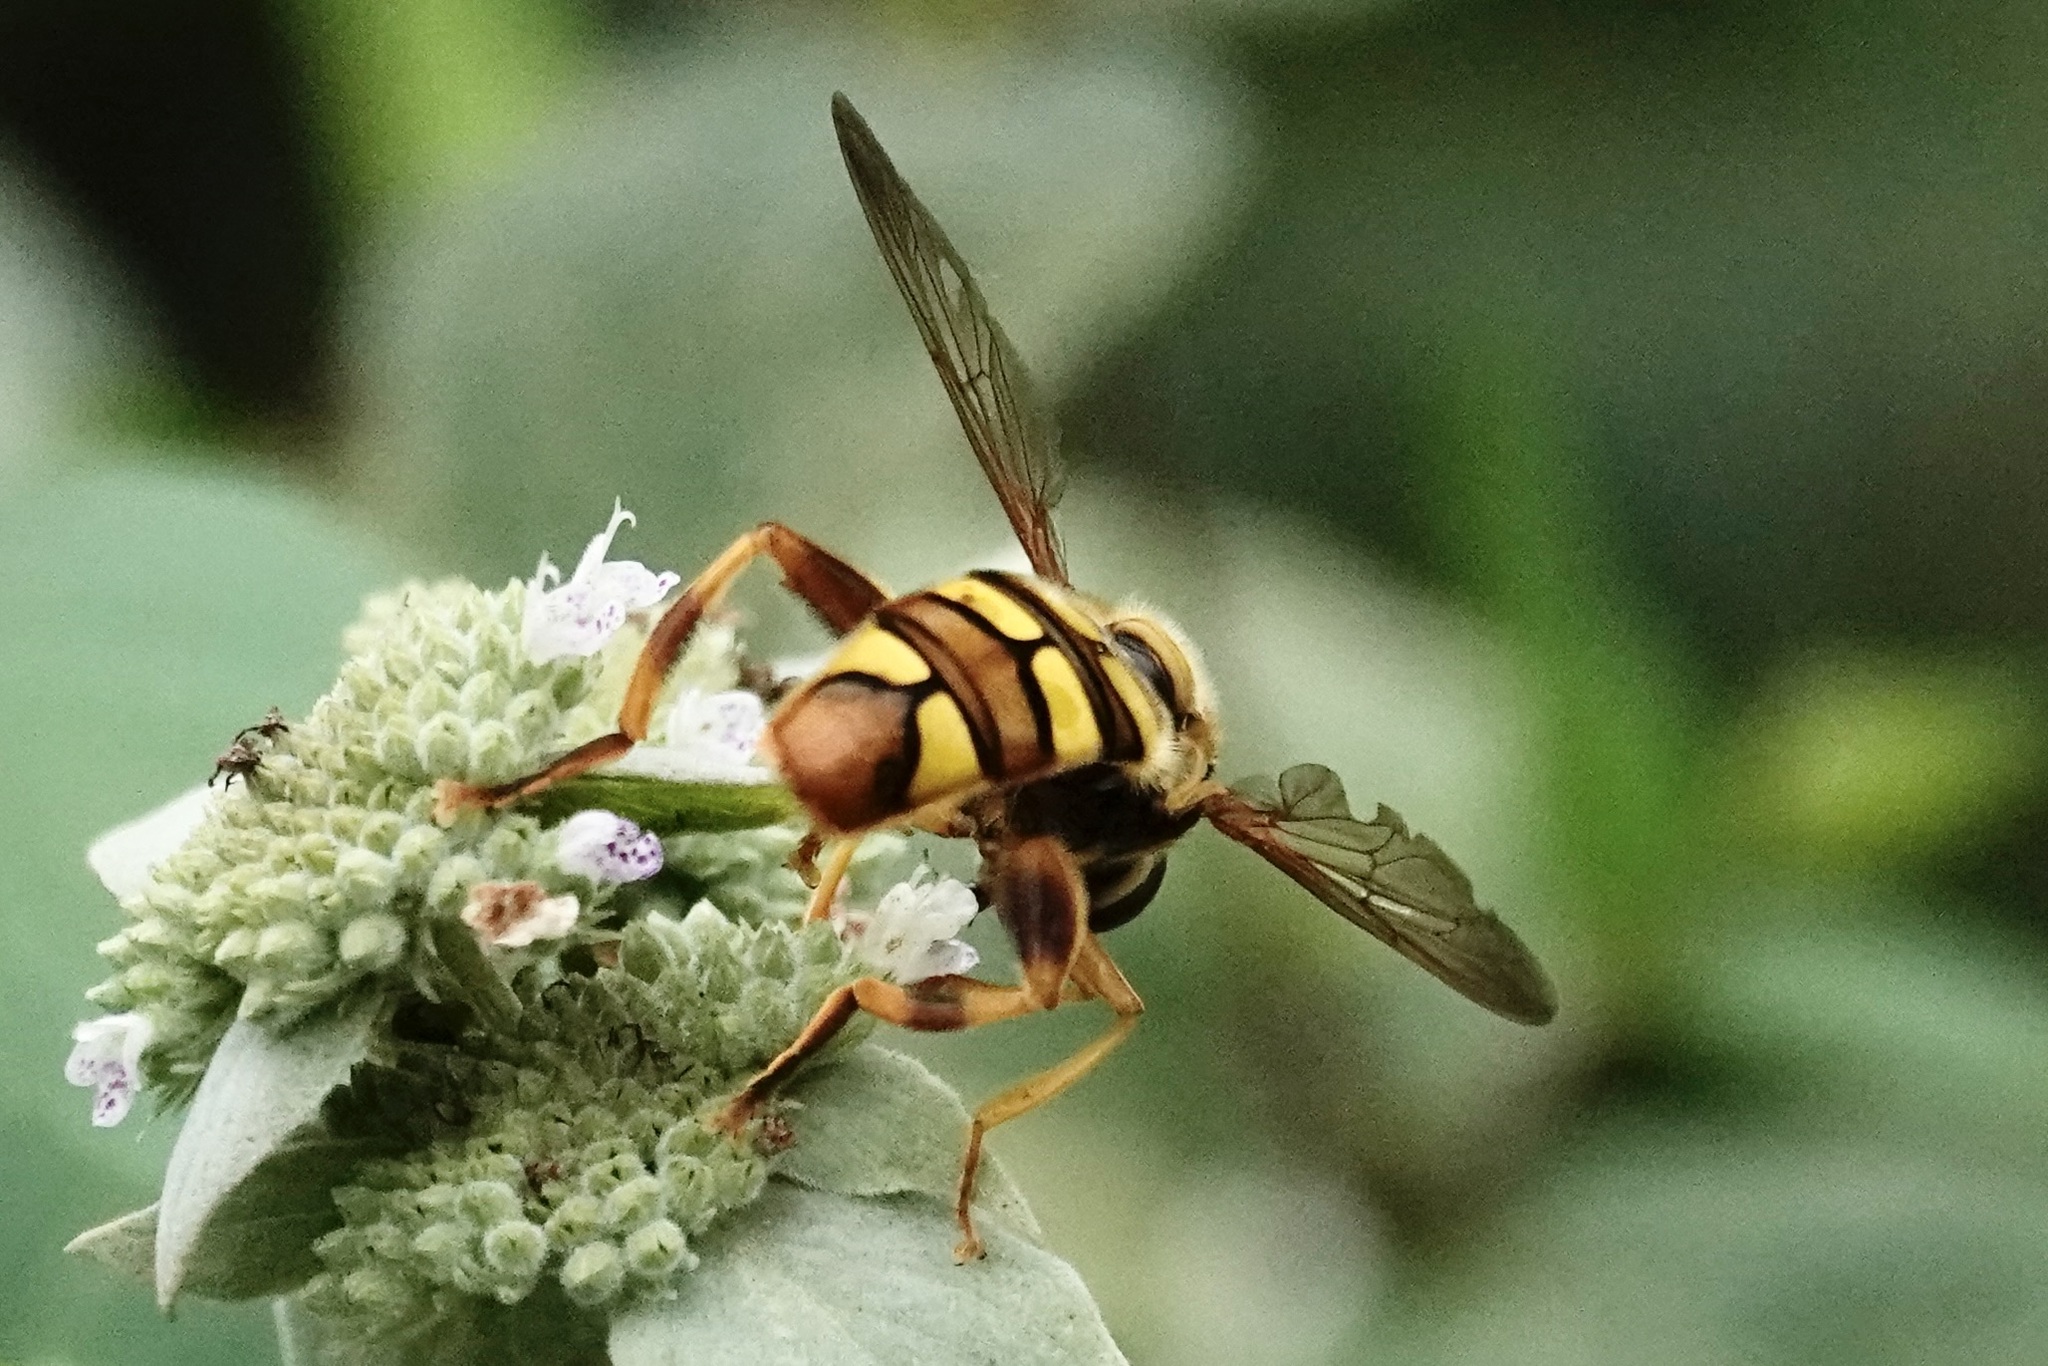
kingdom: Animalia
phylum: Arthropoda
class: Insecta
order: Diptera
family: Syrphidae
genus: Milesia
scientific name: Milesia virginiensis
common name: Virginia giant
